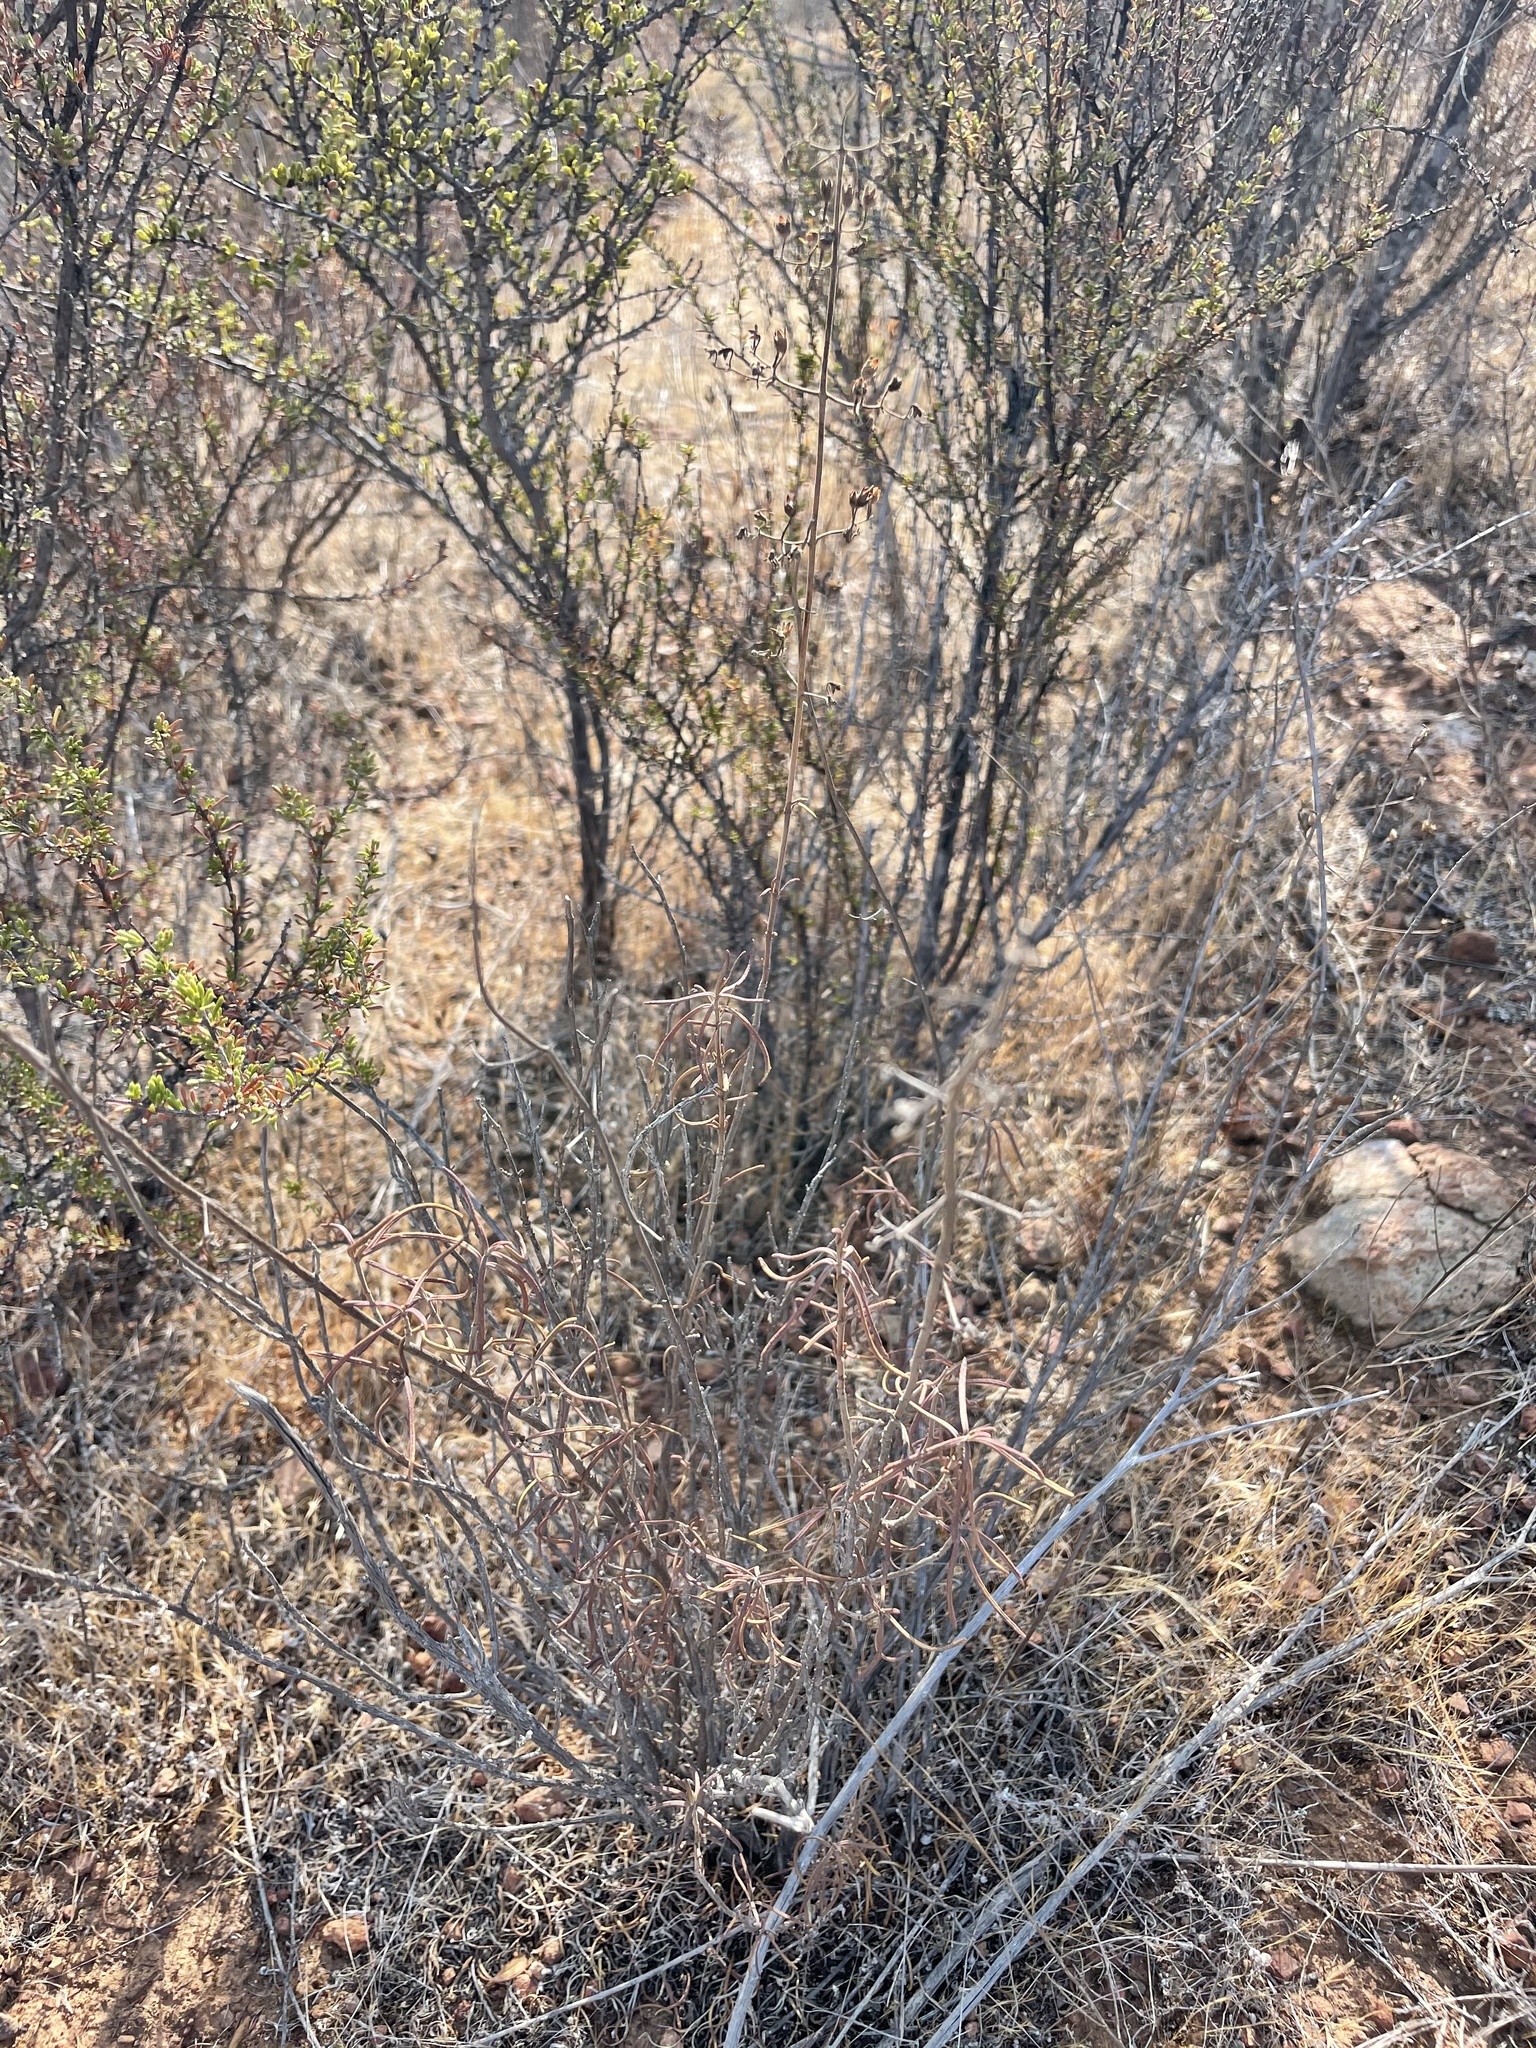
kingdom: Plantae
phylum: Tracheophyta
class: Magnoliopsida
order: Lamiales
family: Lamiaceae
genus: Trichostema
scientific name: Trichostema parishii
